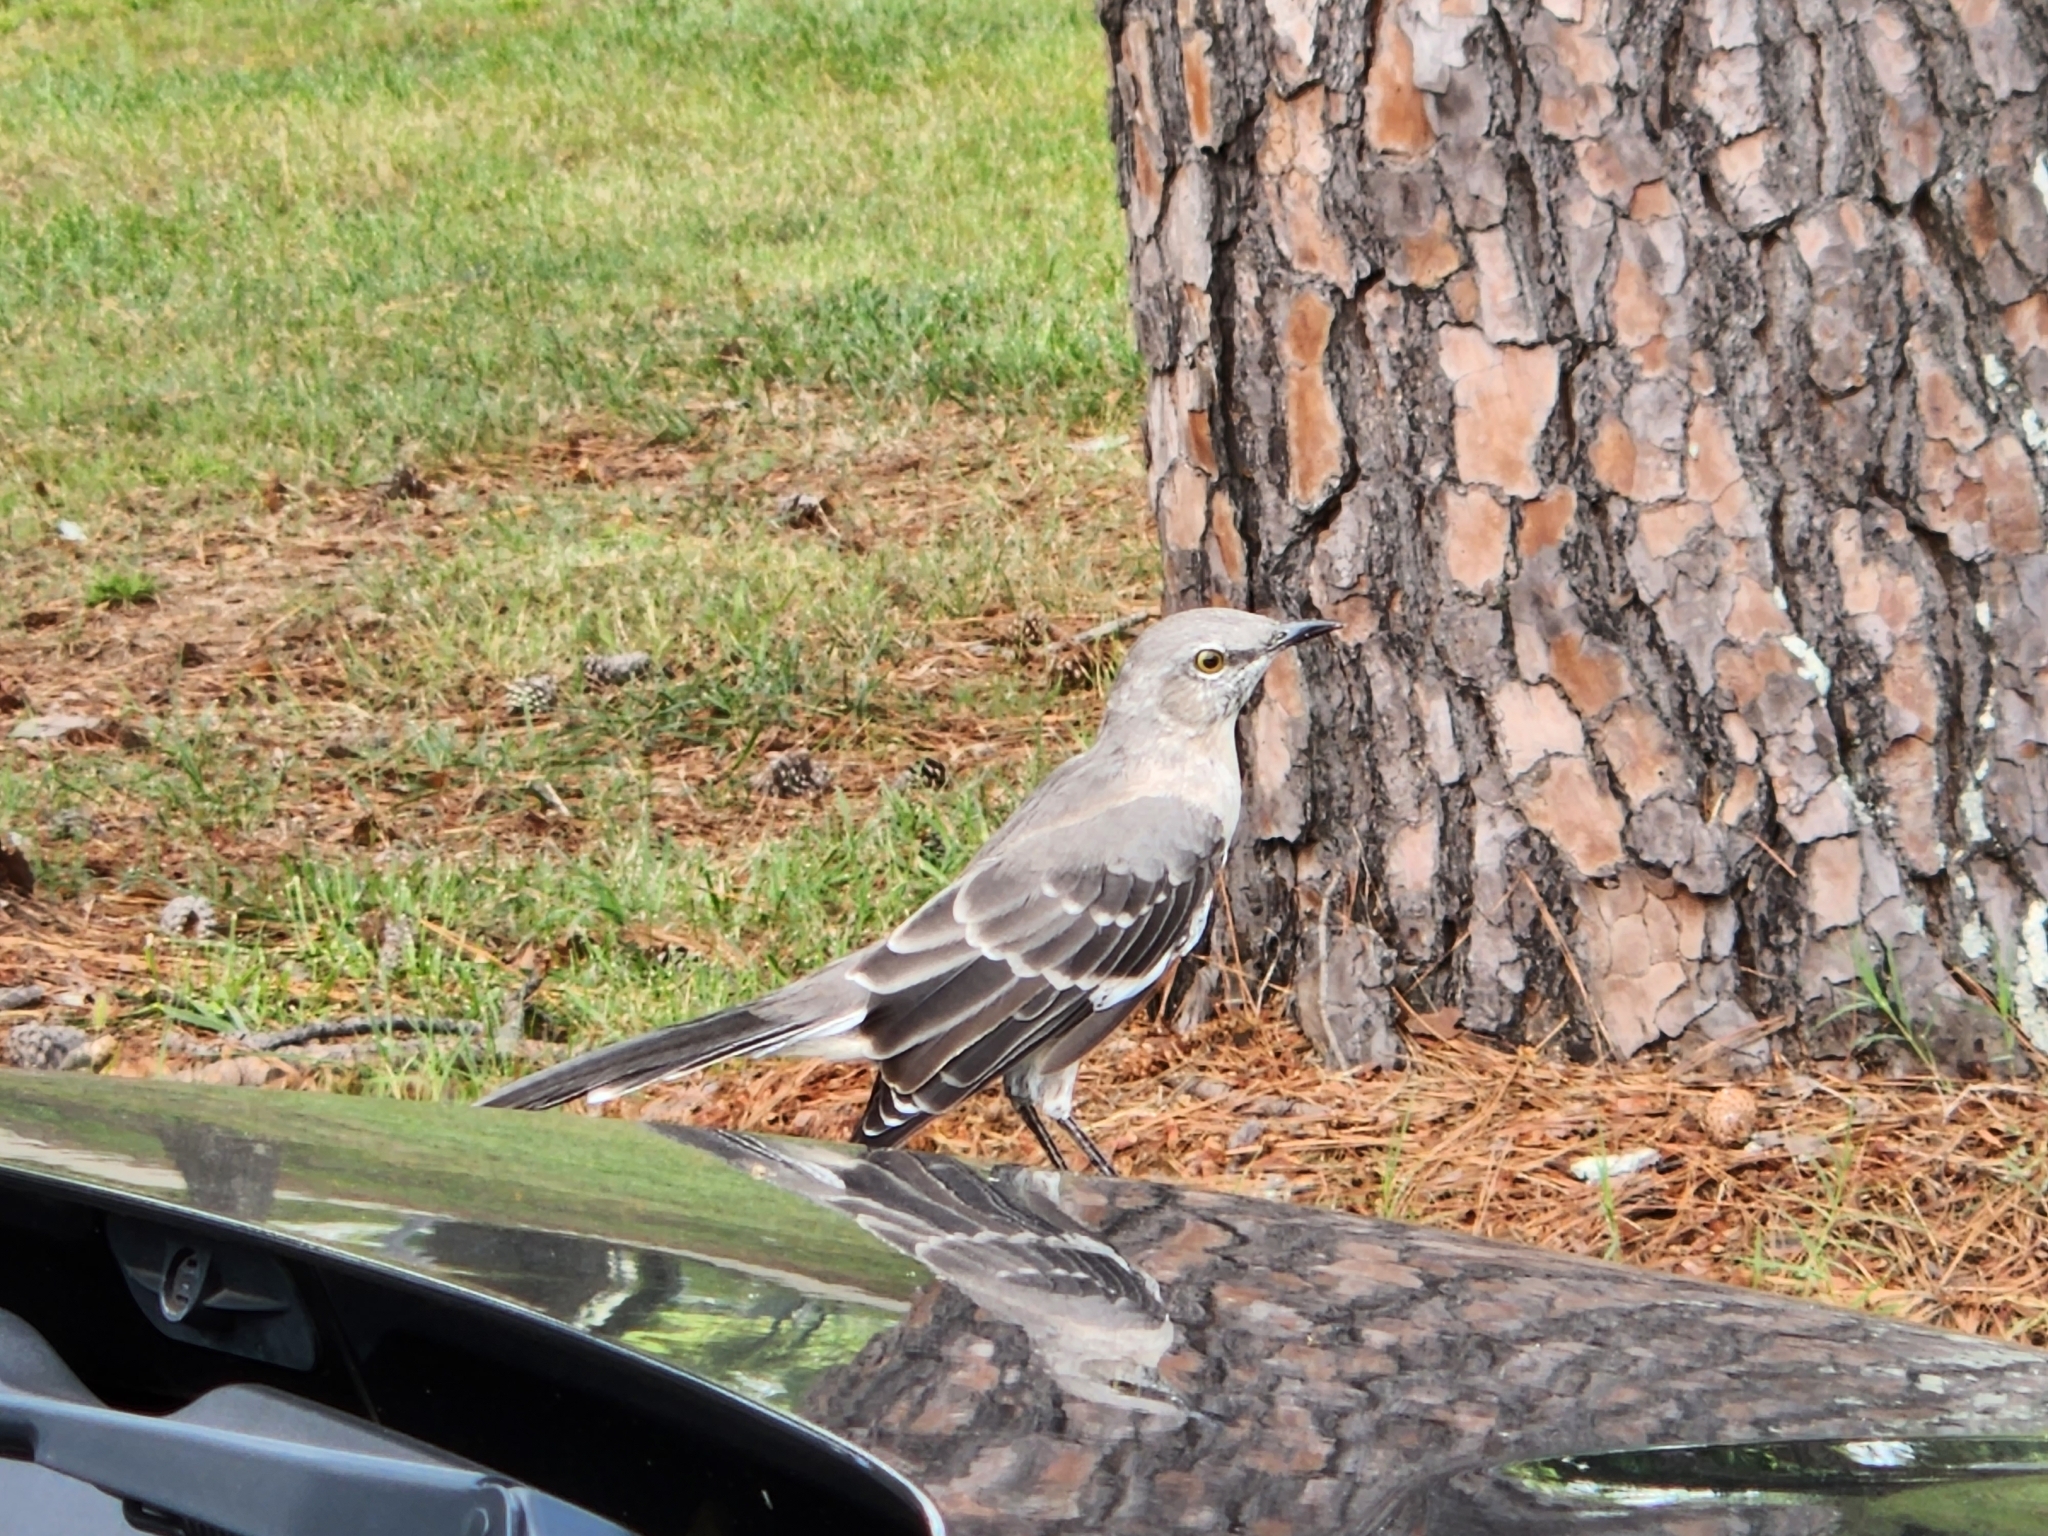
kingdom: Animalia
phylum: Chordata
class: Aves
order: Passeriformes
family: Mimidae
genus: Mimus
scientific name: Mimus polyglottos
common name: Northern mockingbird
